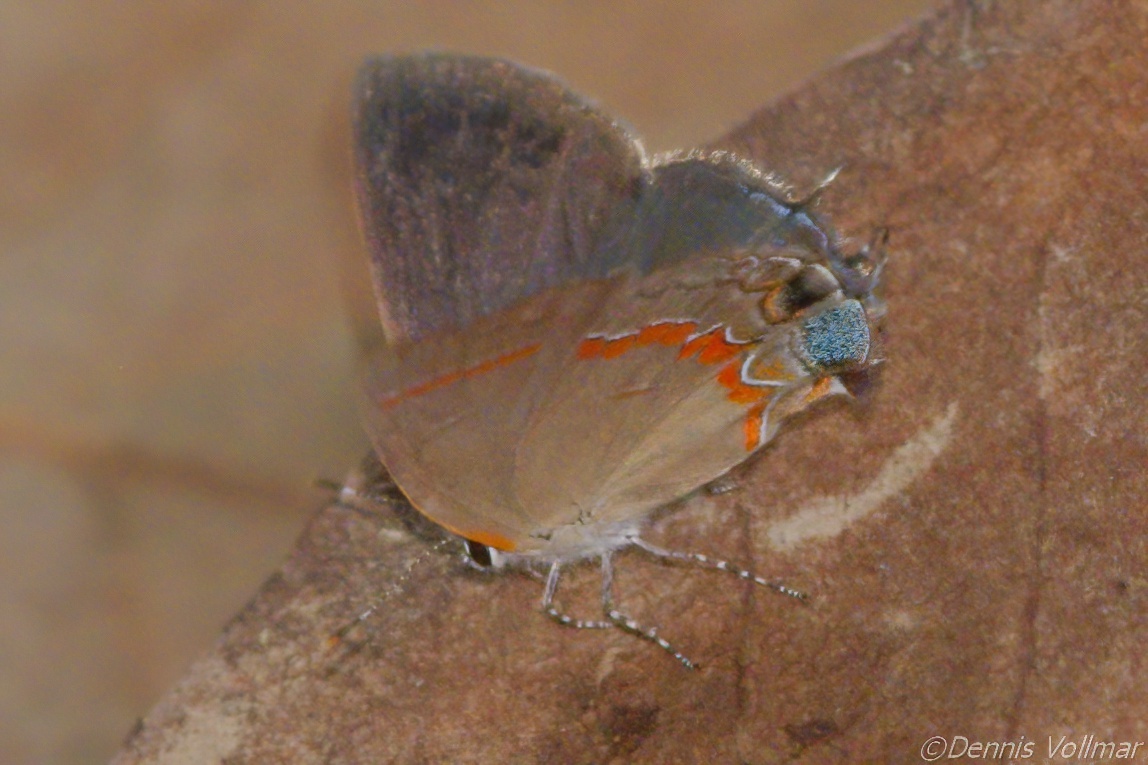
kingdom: Animalia
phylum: Arthropoda
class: Insecta
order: Lepidoptera
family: Lycaenidae
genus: Calycopis
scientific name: Calycopis cecrops
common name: Red-banded hairstreak
